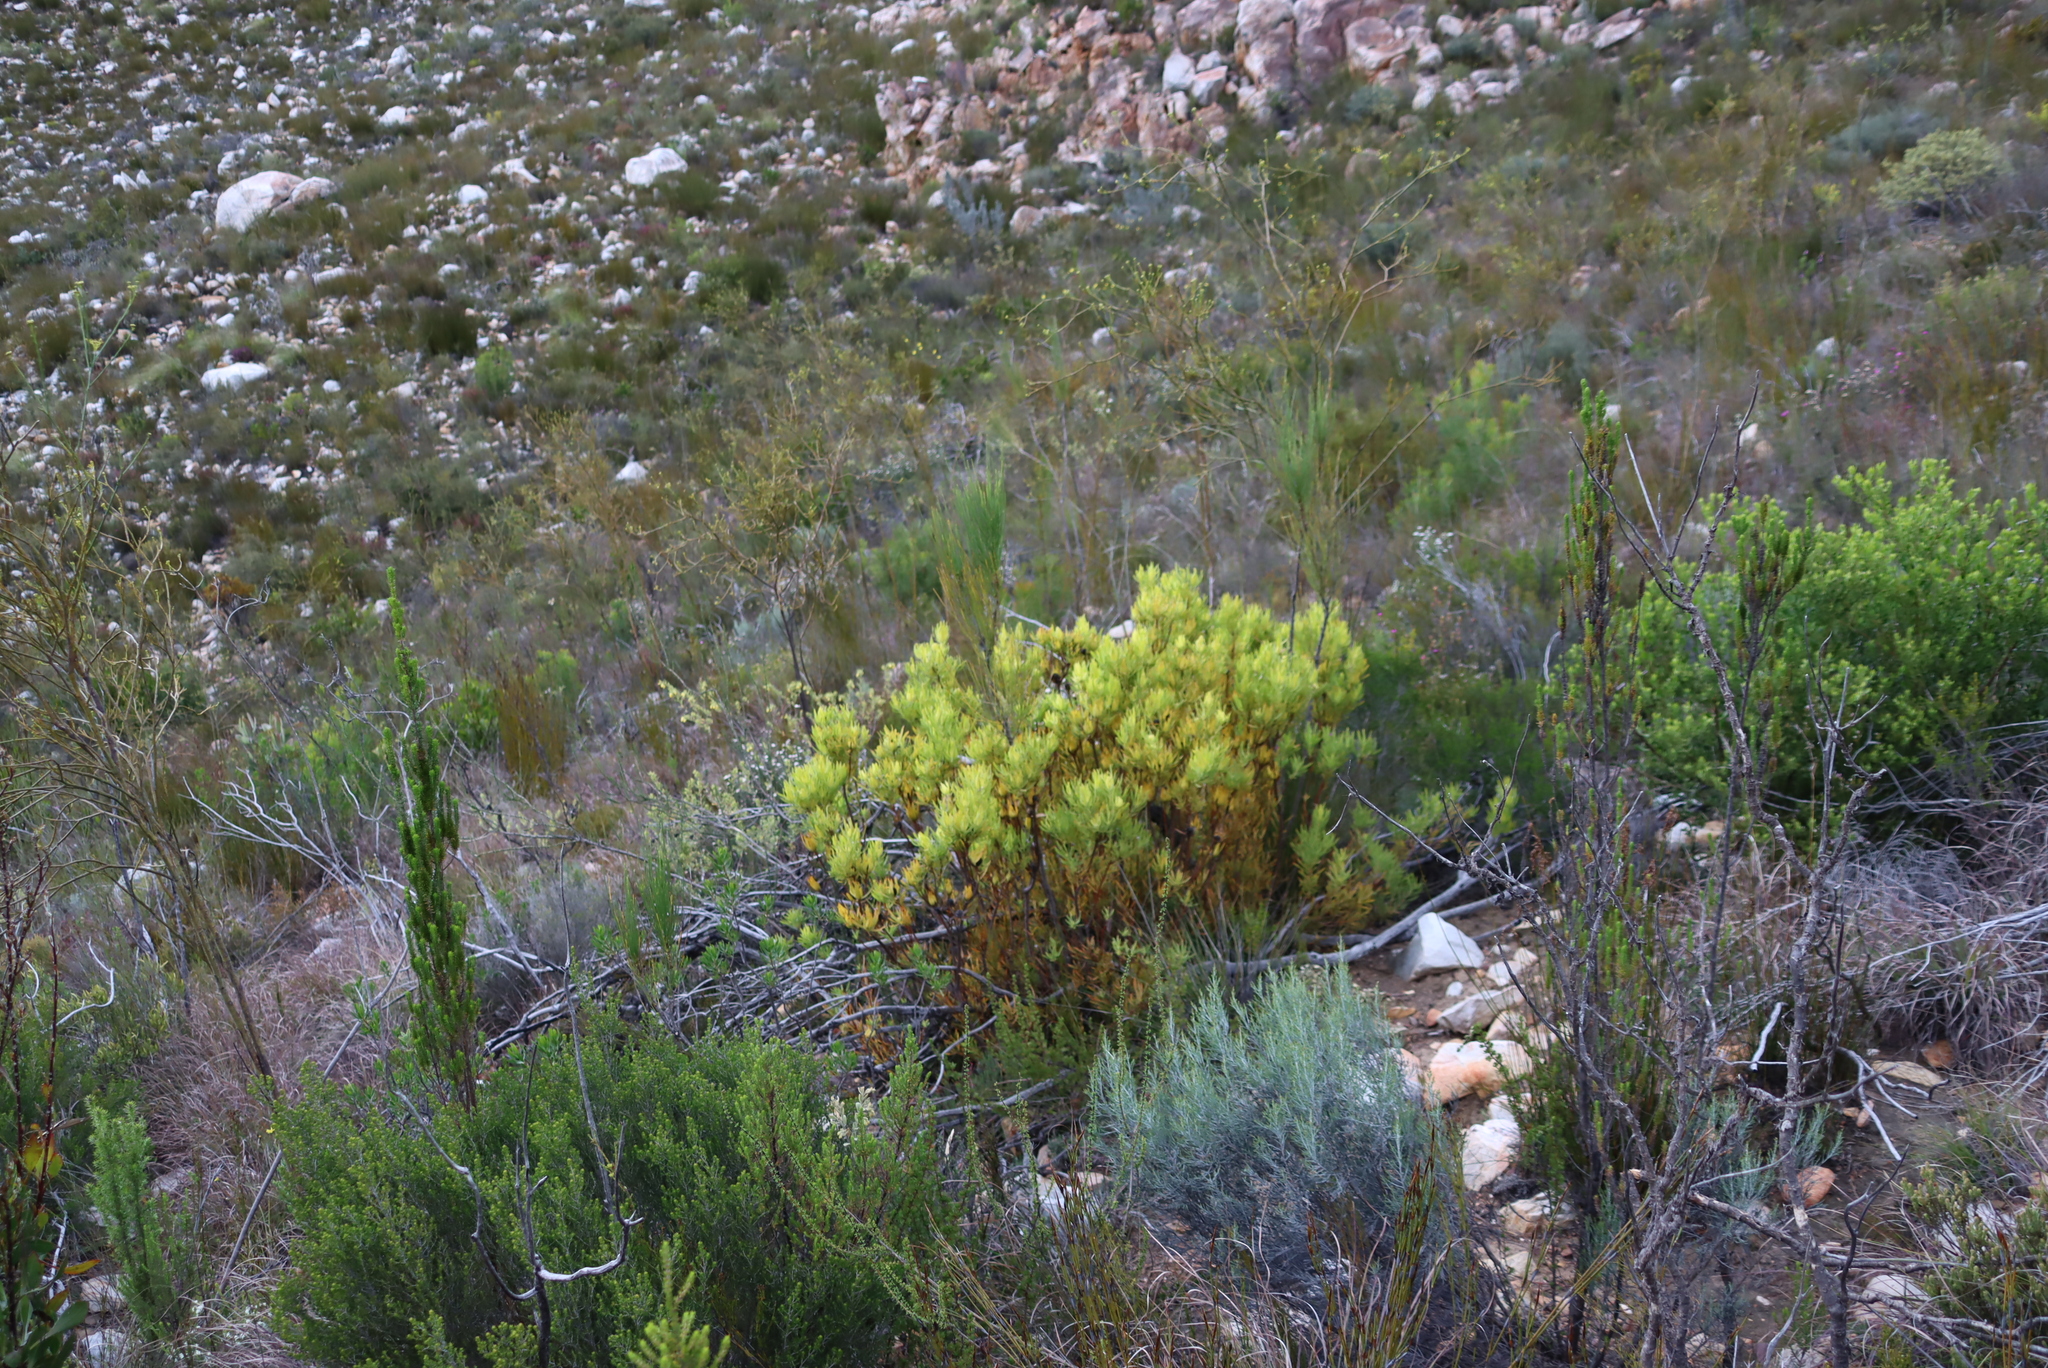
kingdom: Plantae
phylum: Tracheophyta
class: Magnoliopsida
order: Proteales
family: Proteaceae
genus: Leucadendron
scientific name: Leucadendron salignum
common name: Common sunshine conebush
